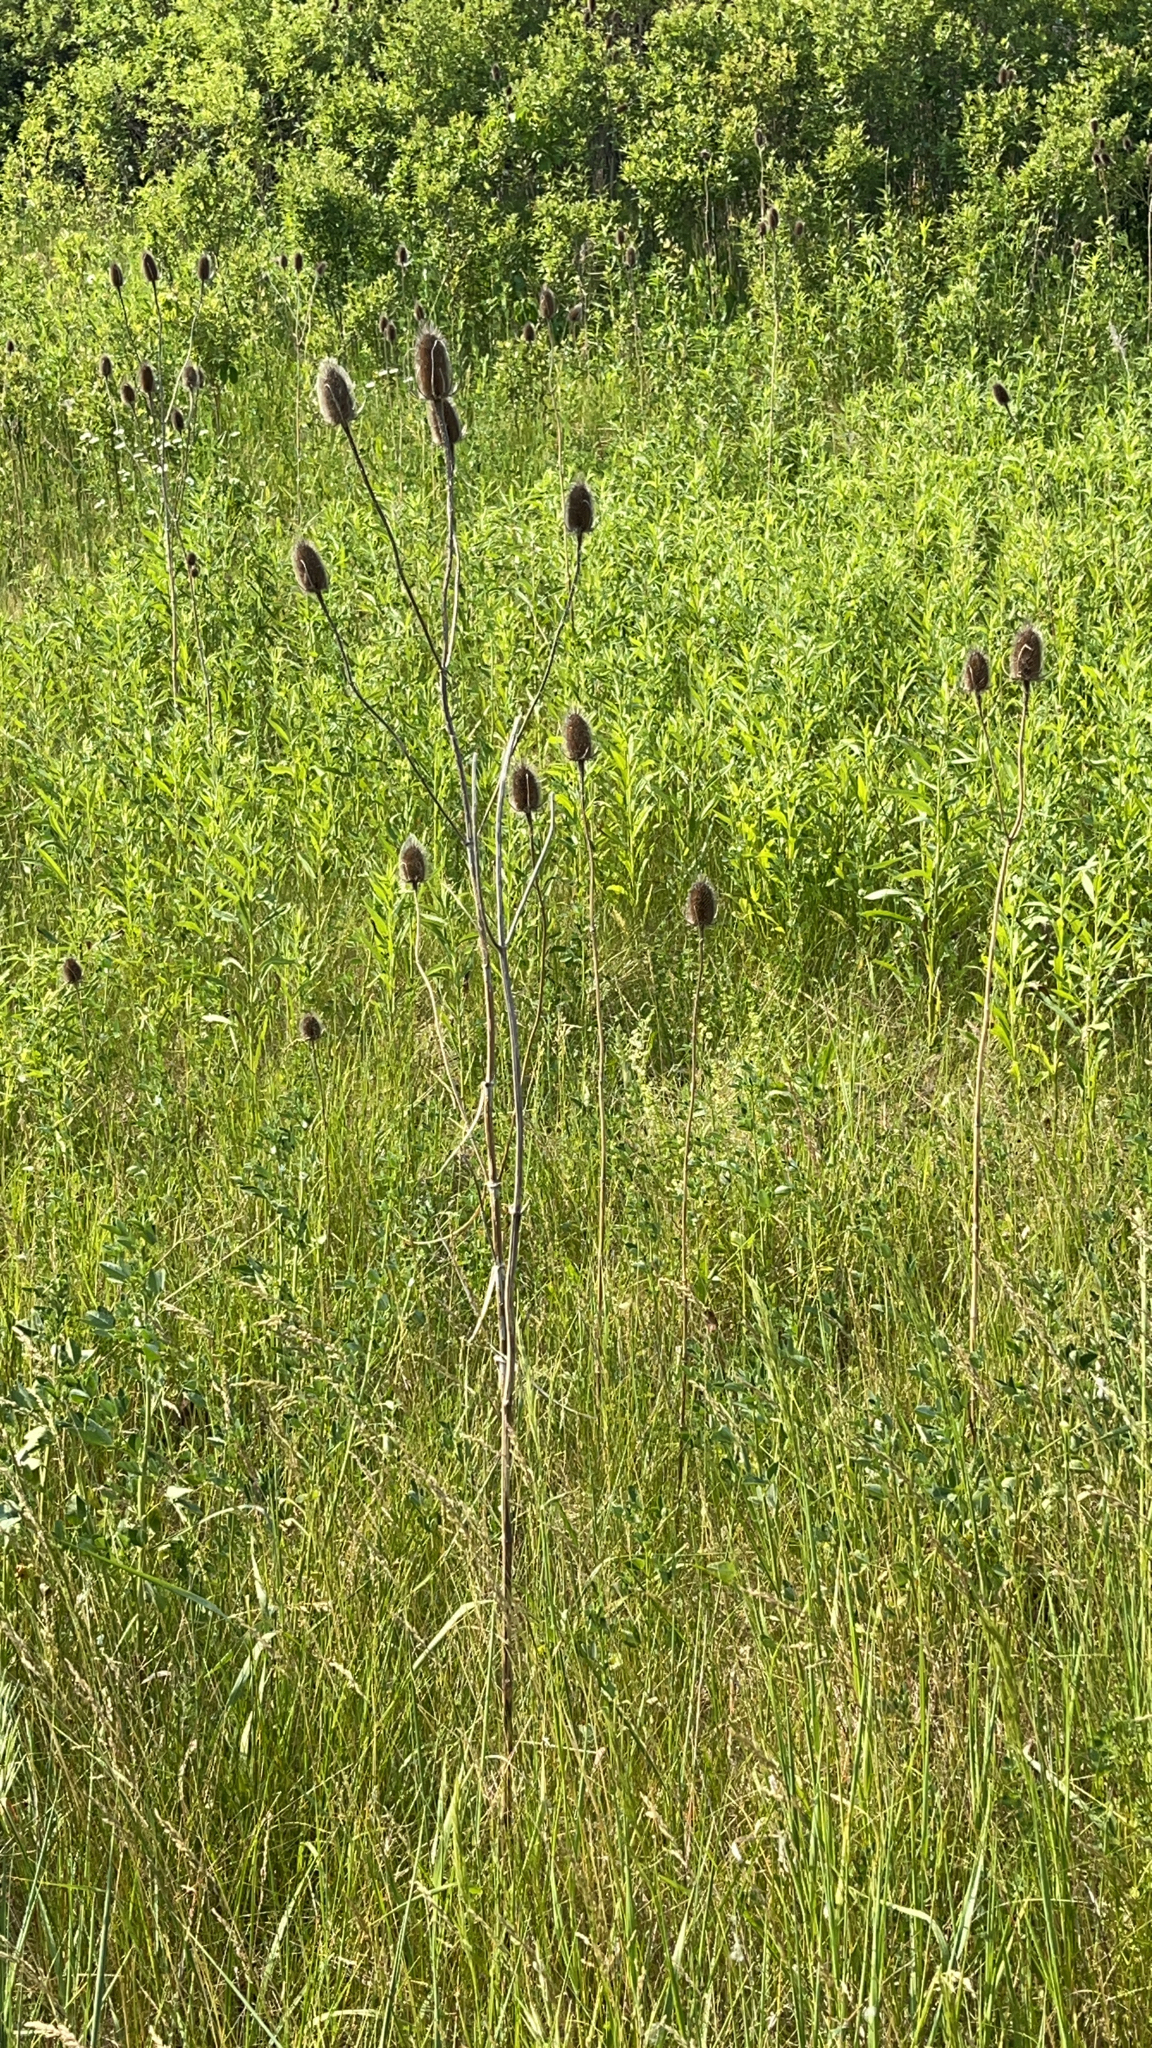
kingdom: Plantae
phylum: Tracheophyta
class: Magnoliopsida
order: Dipsacales
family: Caprifoliaceae
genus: Dipsacus
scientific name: Dipsacus fullonum
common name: Teasel
